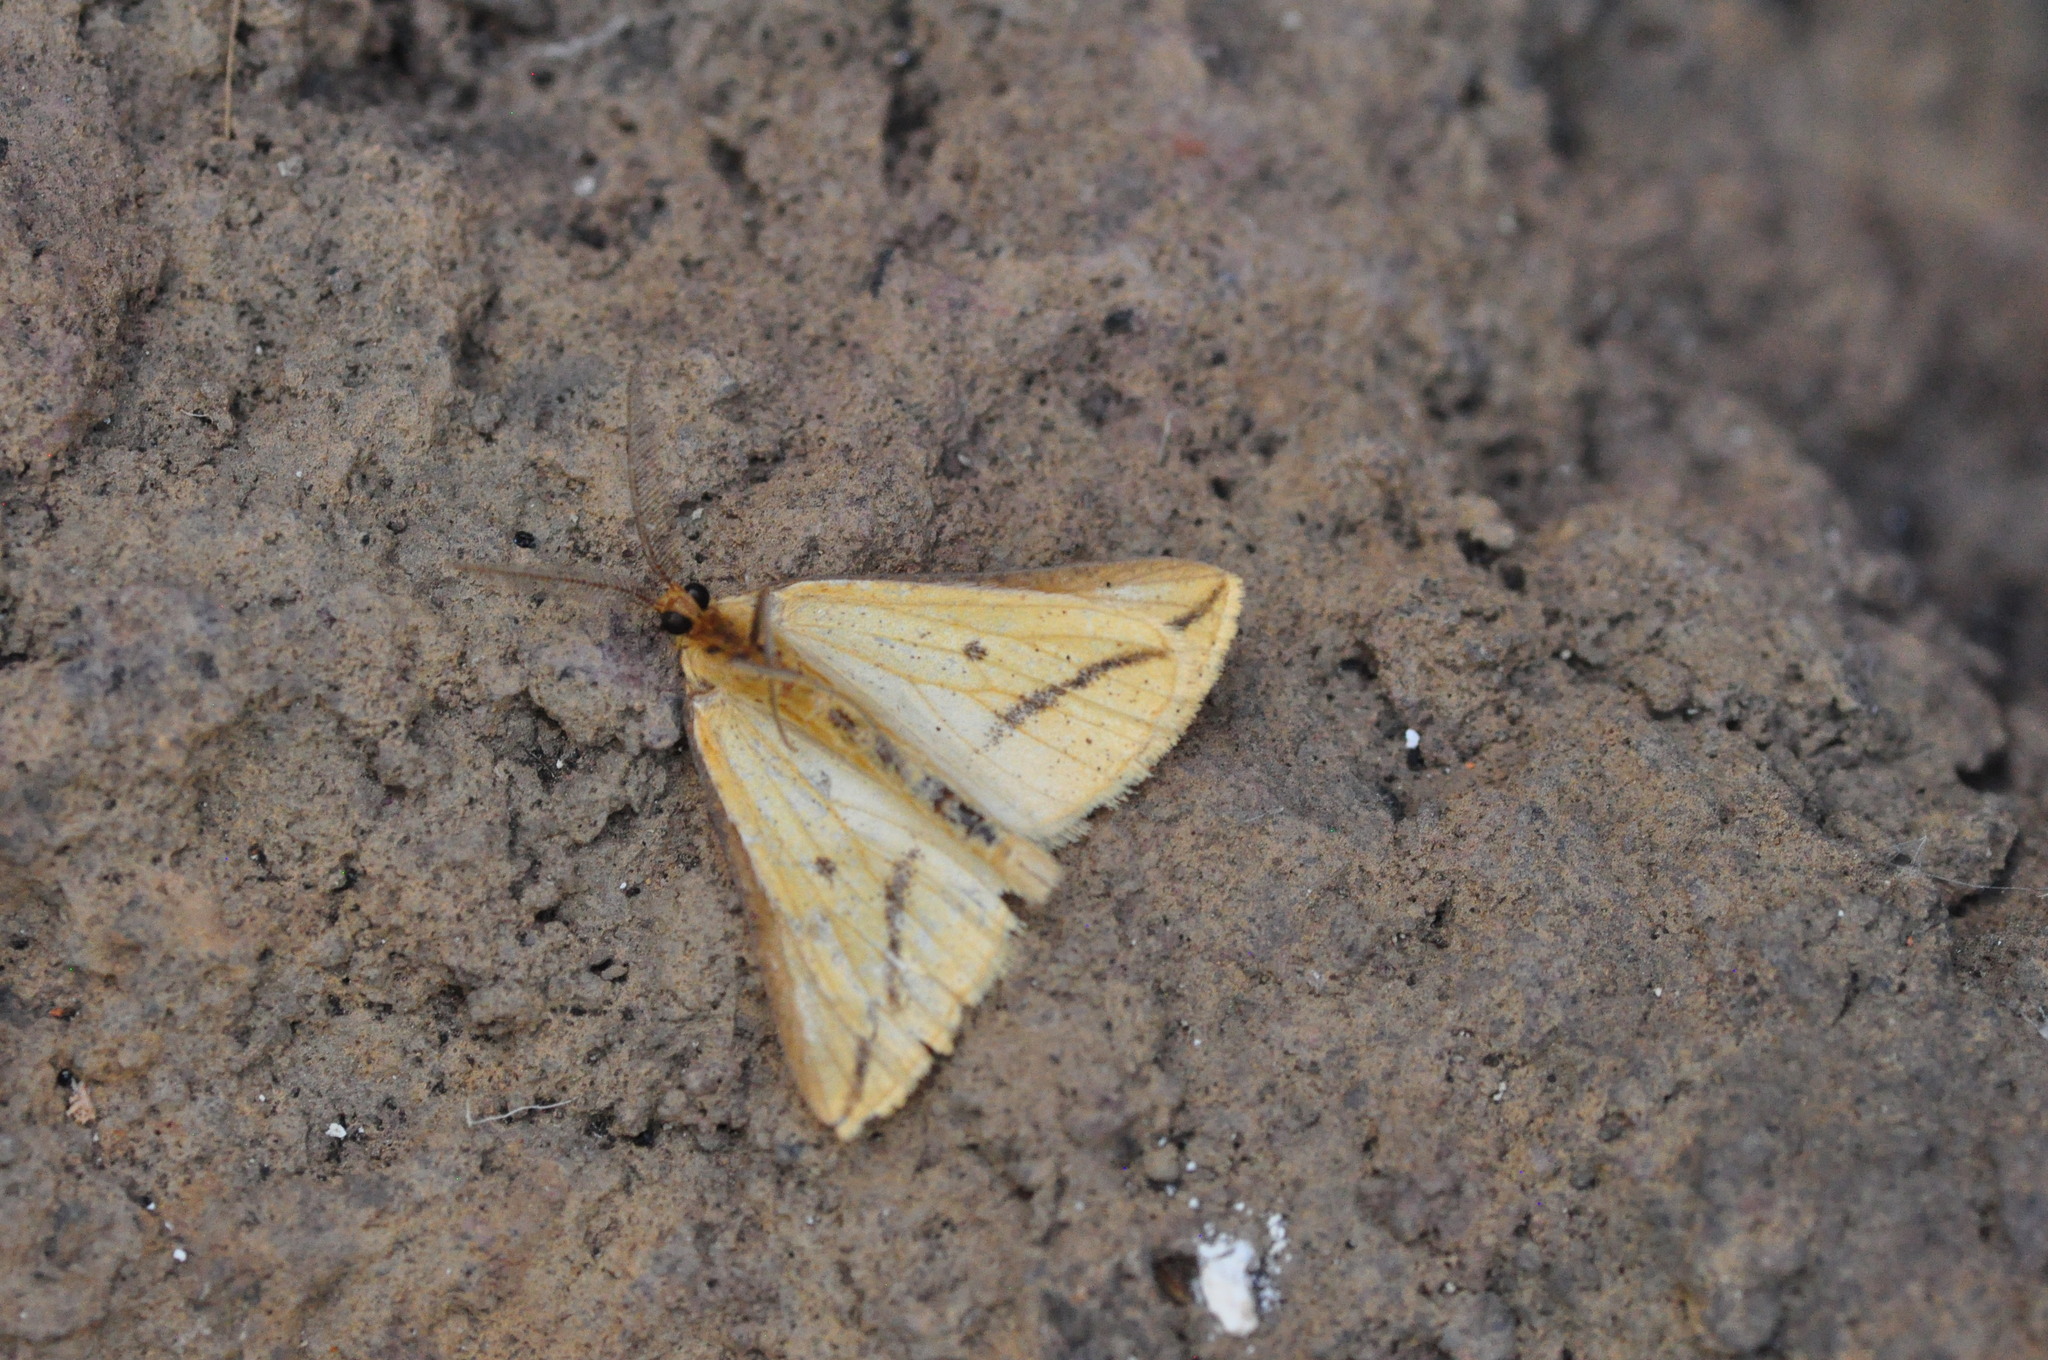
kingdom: Animalia
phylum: Arthropoda
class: Insecta
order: Lepidoptera
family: Geometridae
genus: Aspitates
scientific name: Aspitates collinaria
